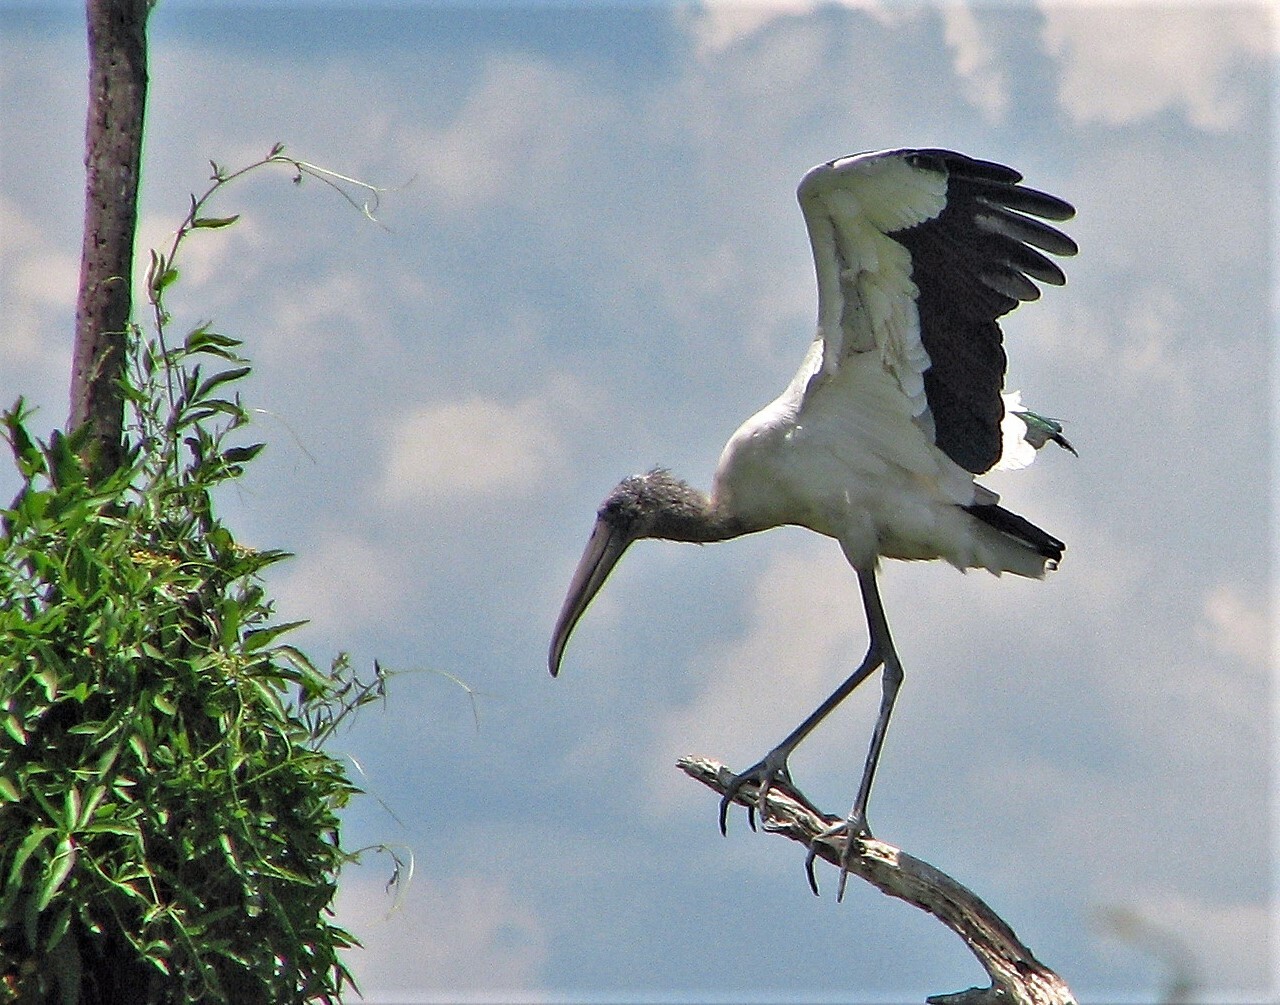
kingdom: Animalia
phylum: Chordata
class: Aves
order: Ciconiiformes
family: Ciconiidae
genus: Mycteria
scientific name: Mycteria americana
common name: Wood stork
